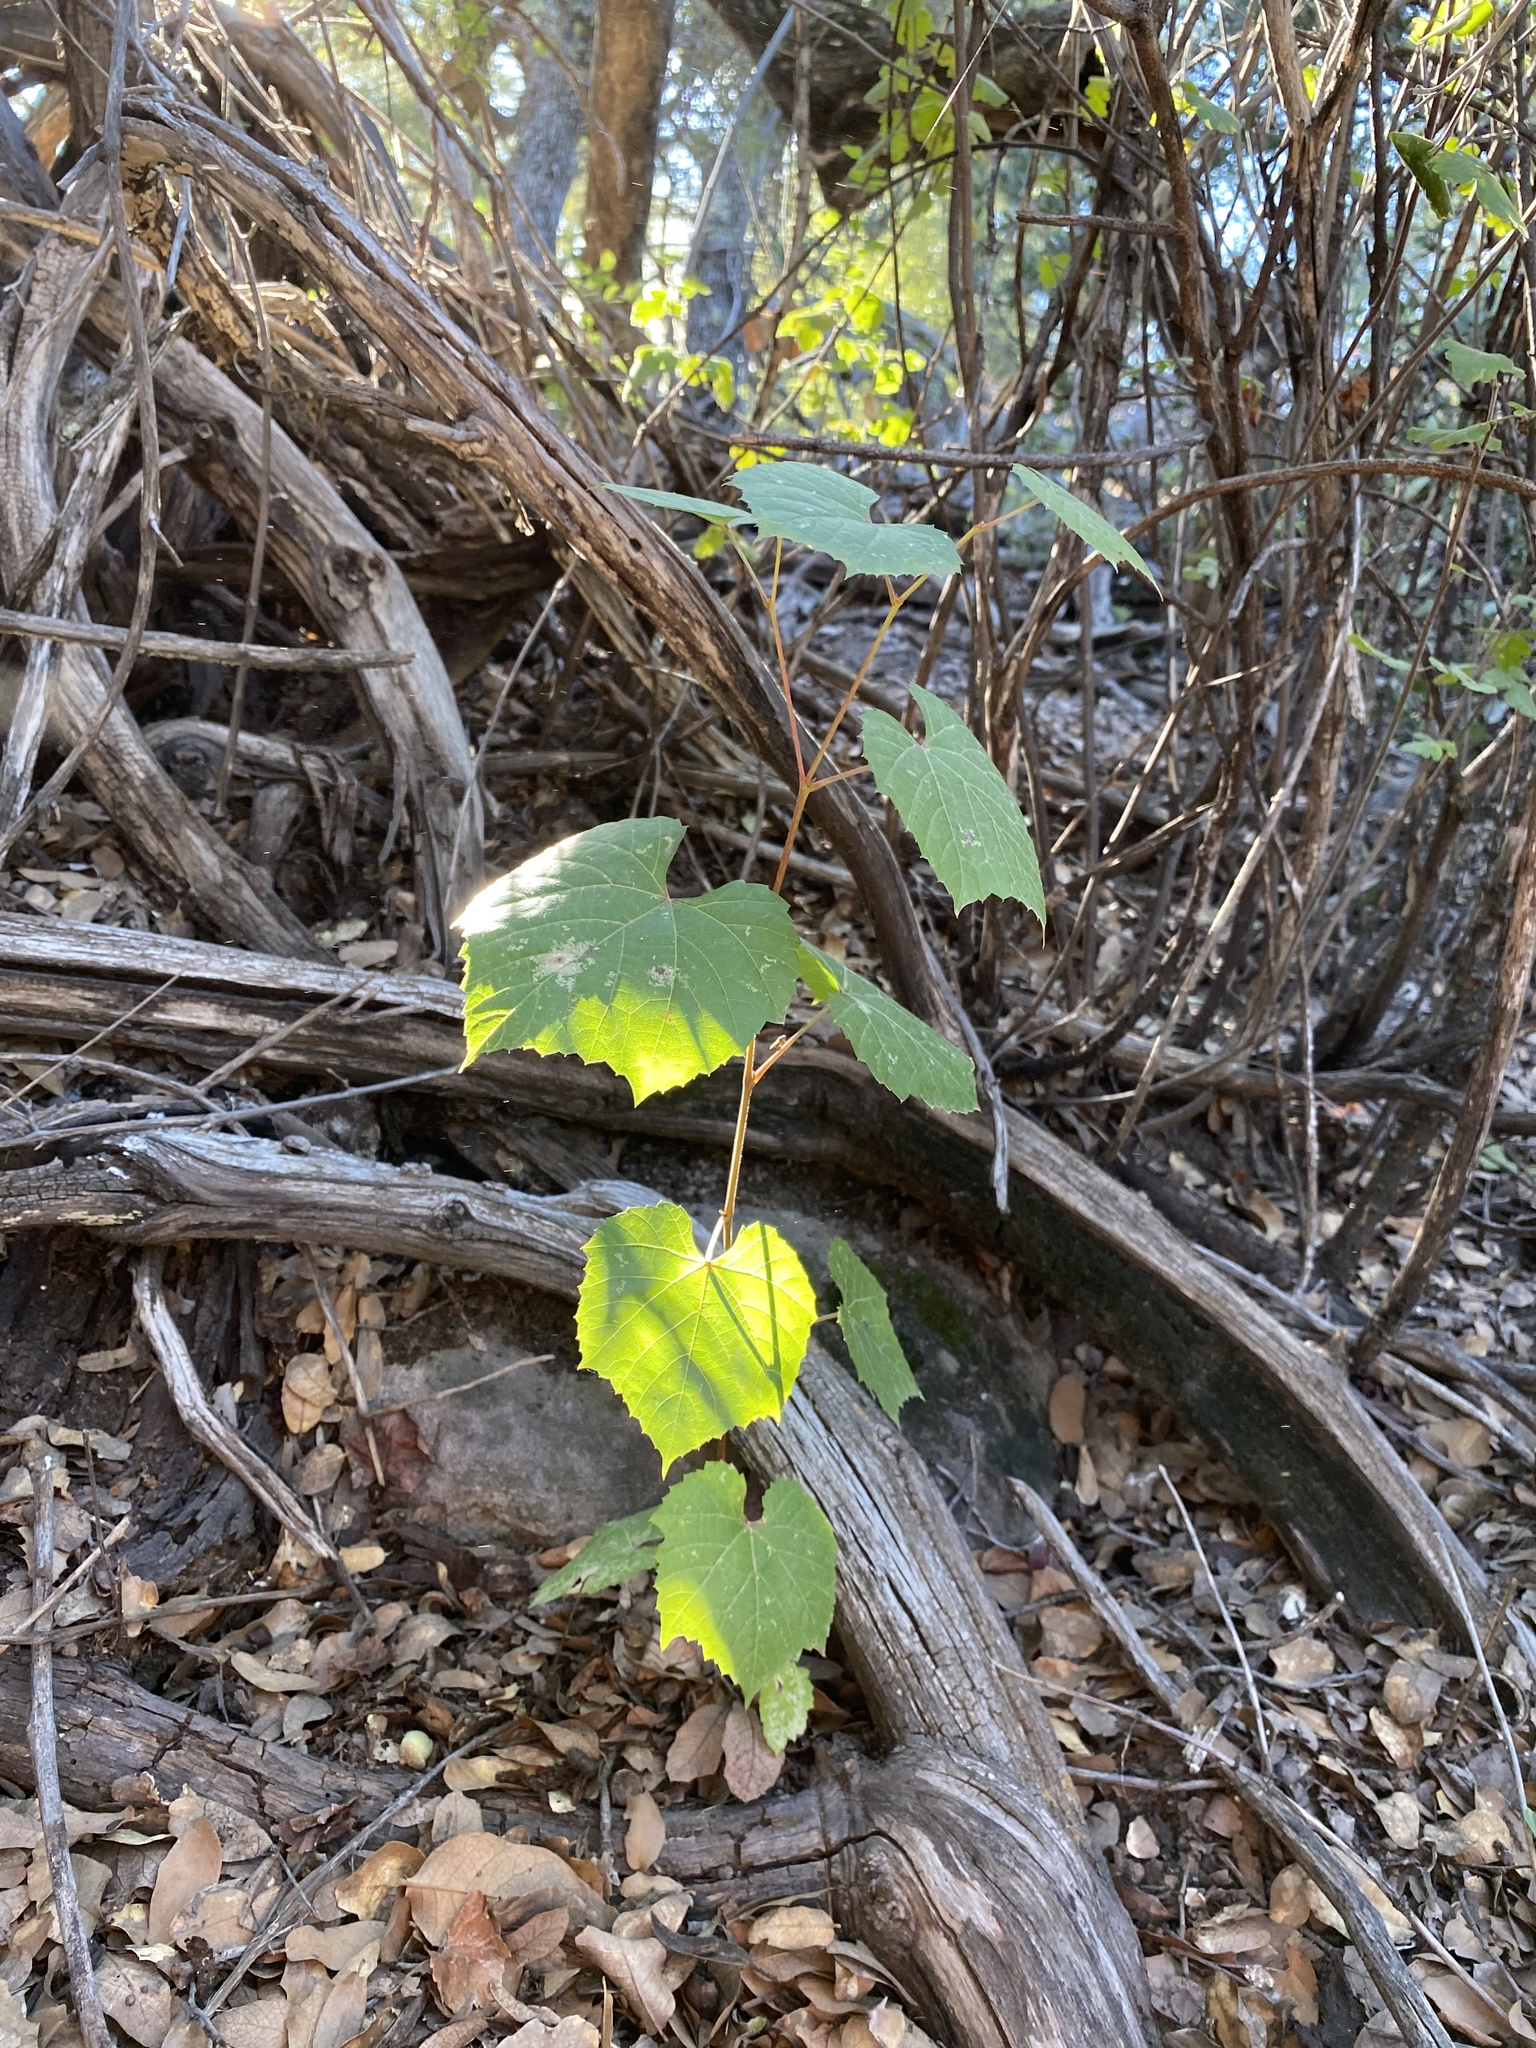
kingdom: Plantae
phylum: Tracheophyta
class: Magnoliopsida
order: Vitales
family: Vitaceae
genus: Vitis
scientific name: Vitis arizonica
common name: Canyon grape
